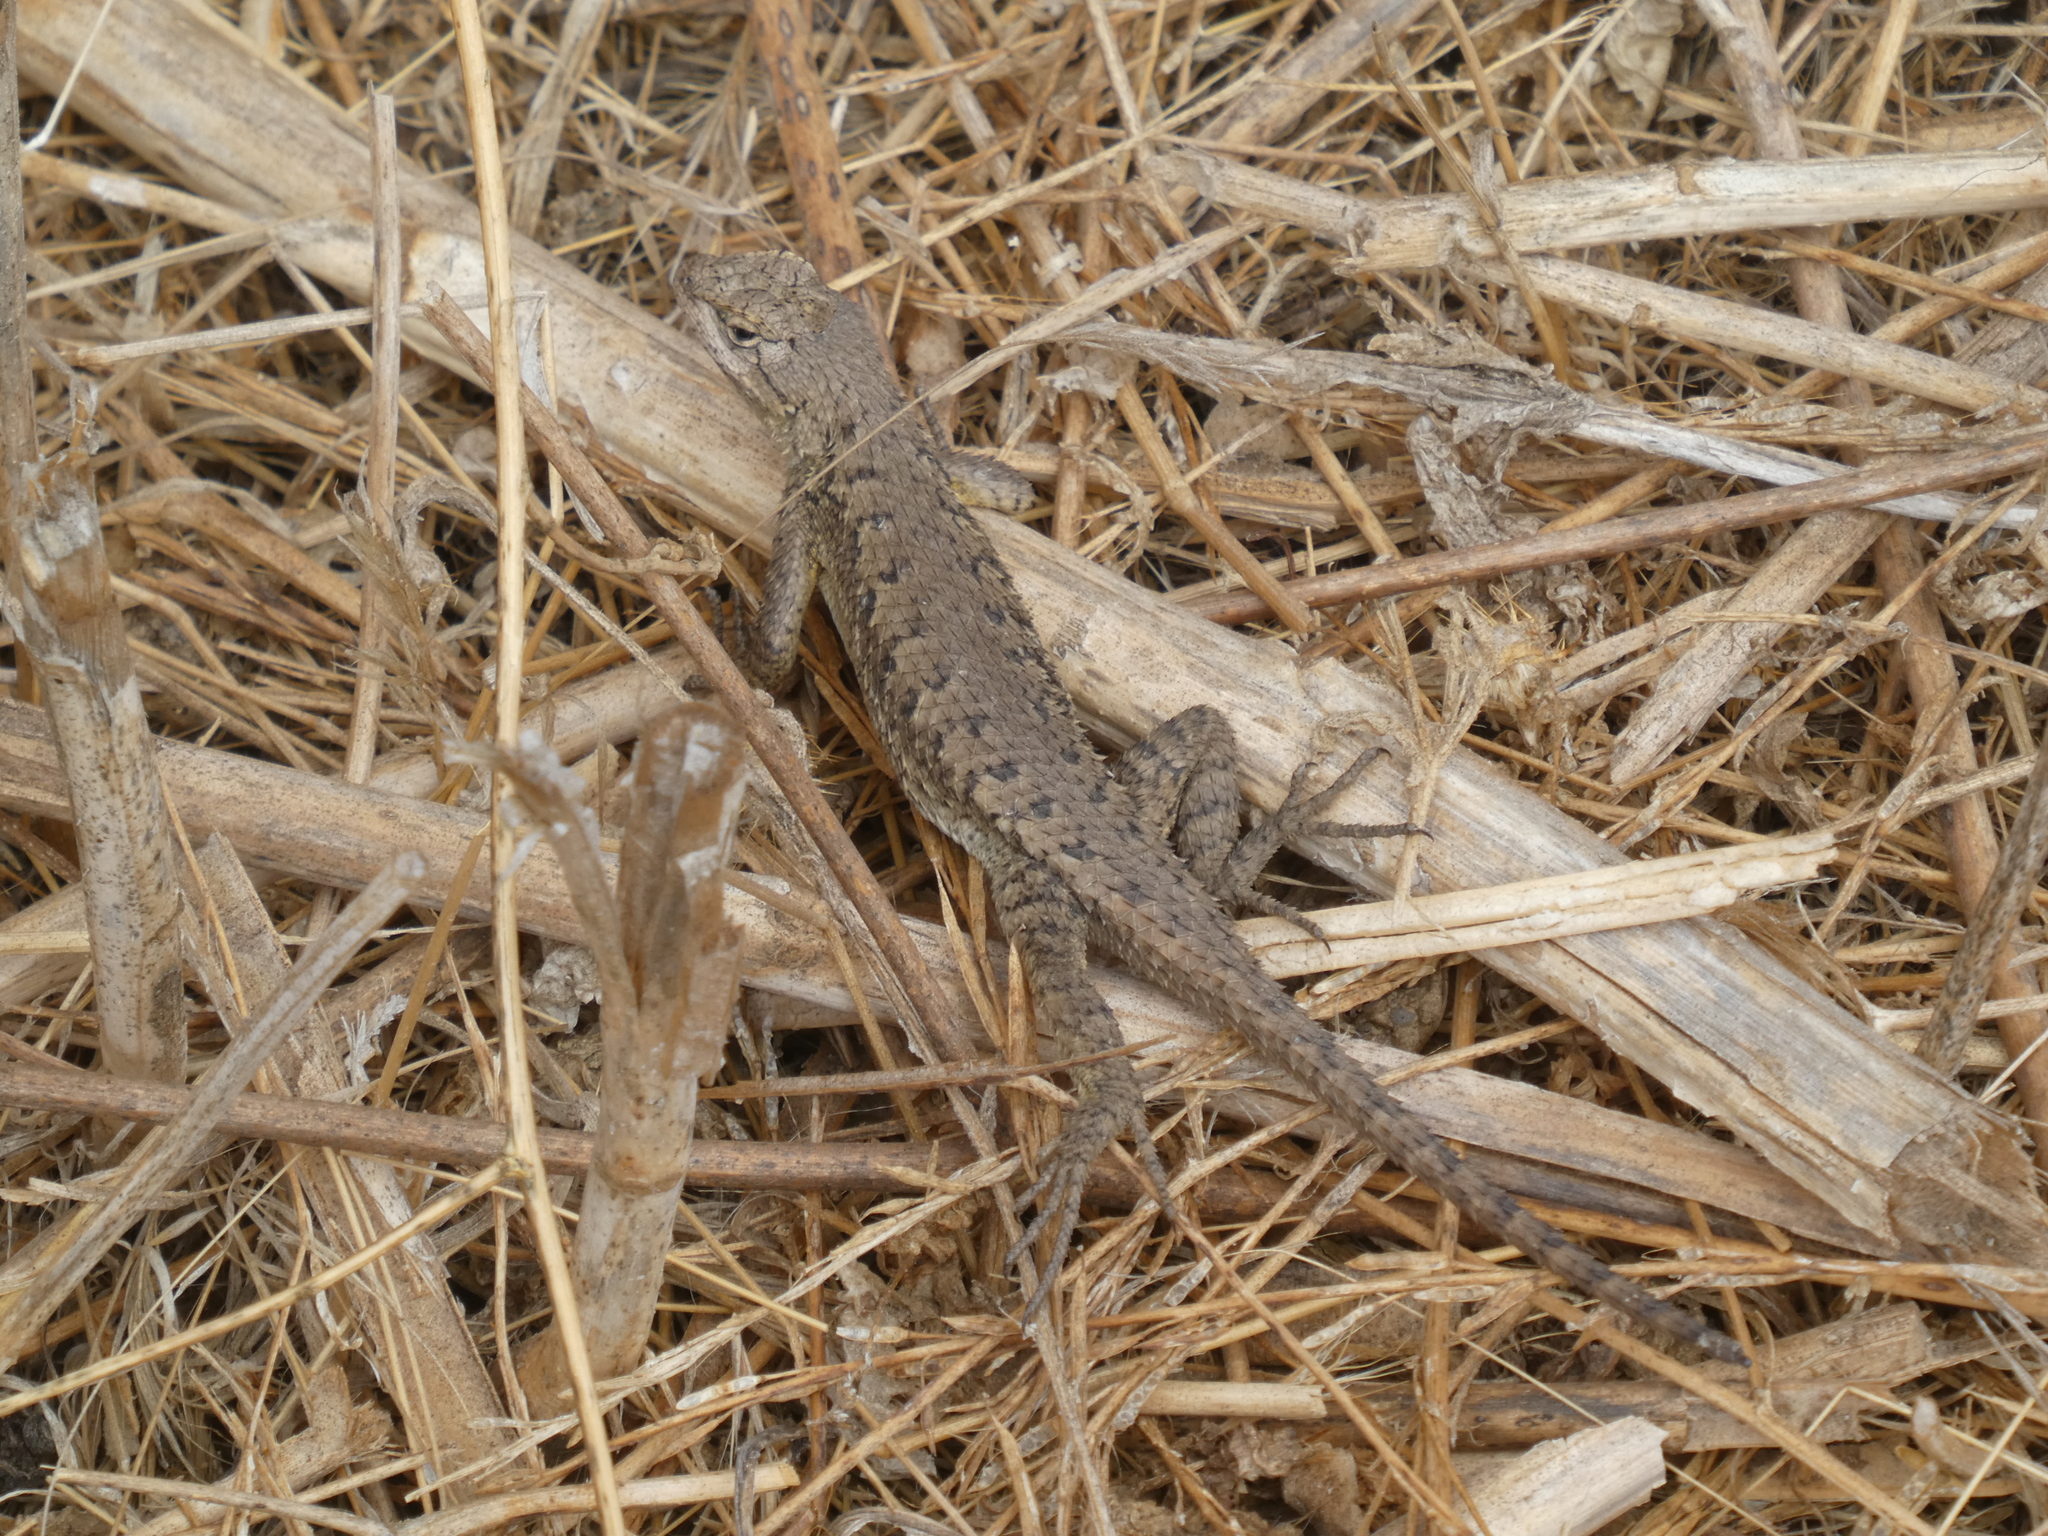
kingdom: Animalia
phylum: Chordata
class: Squamata
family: Phrynosomatidae
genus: Sceloporus
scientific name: Sceloporus occidentalis
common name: Western fence lizard
